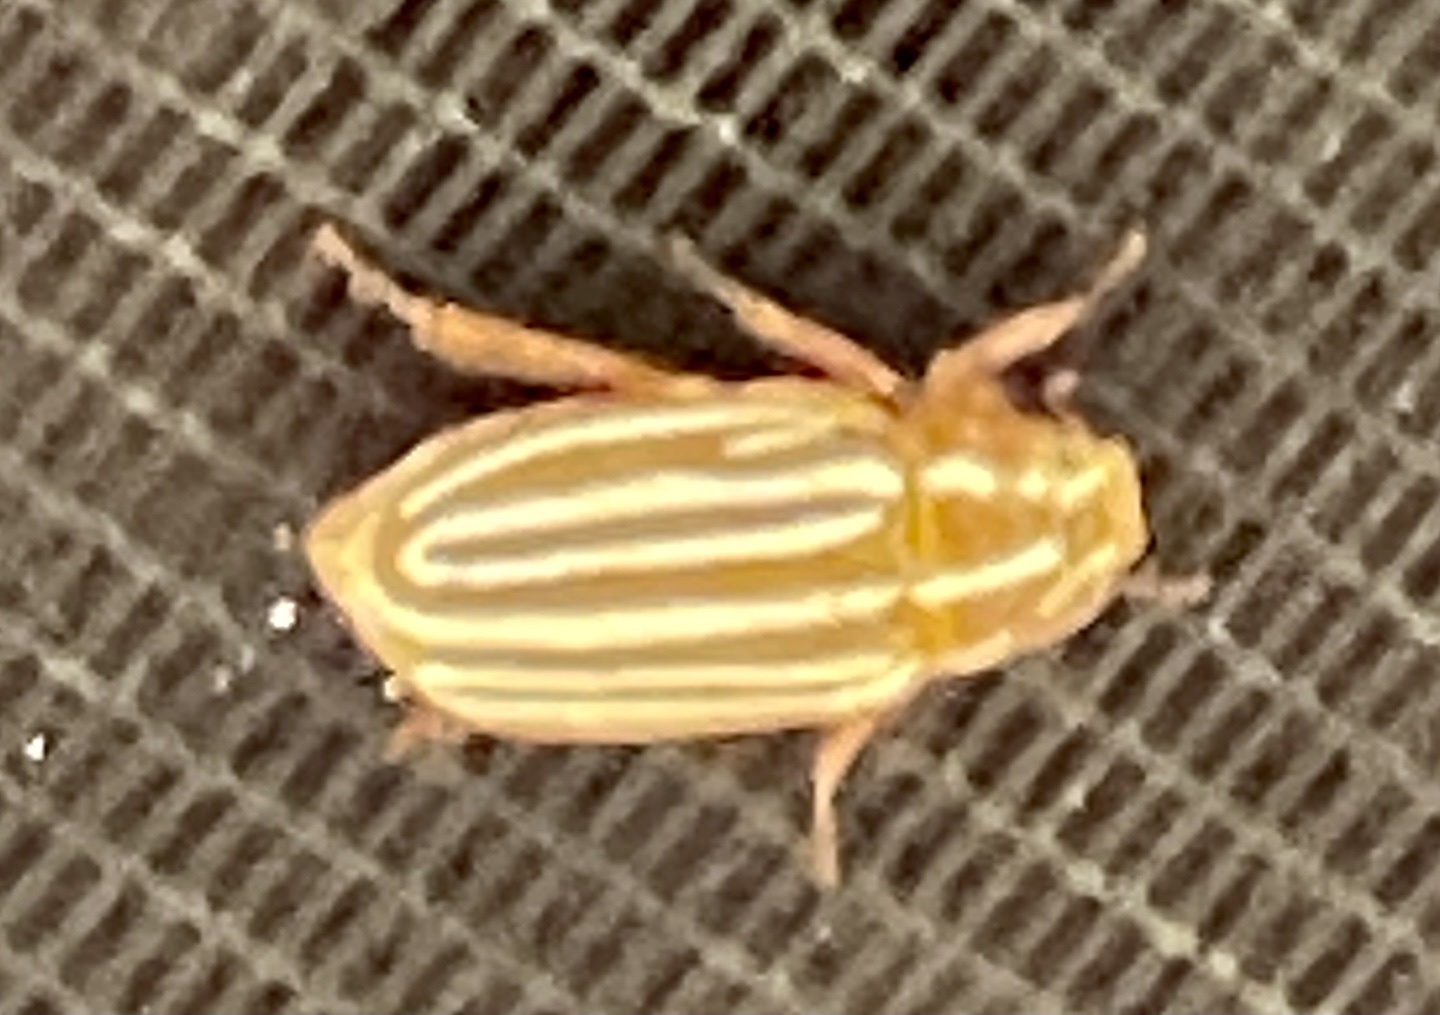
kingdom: Animalia
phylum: Arthropoda
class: Insecta
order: Coleoptera
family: Scarabaeidae
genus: Polyphylla
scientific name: Polyphylla decemlineata
